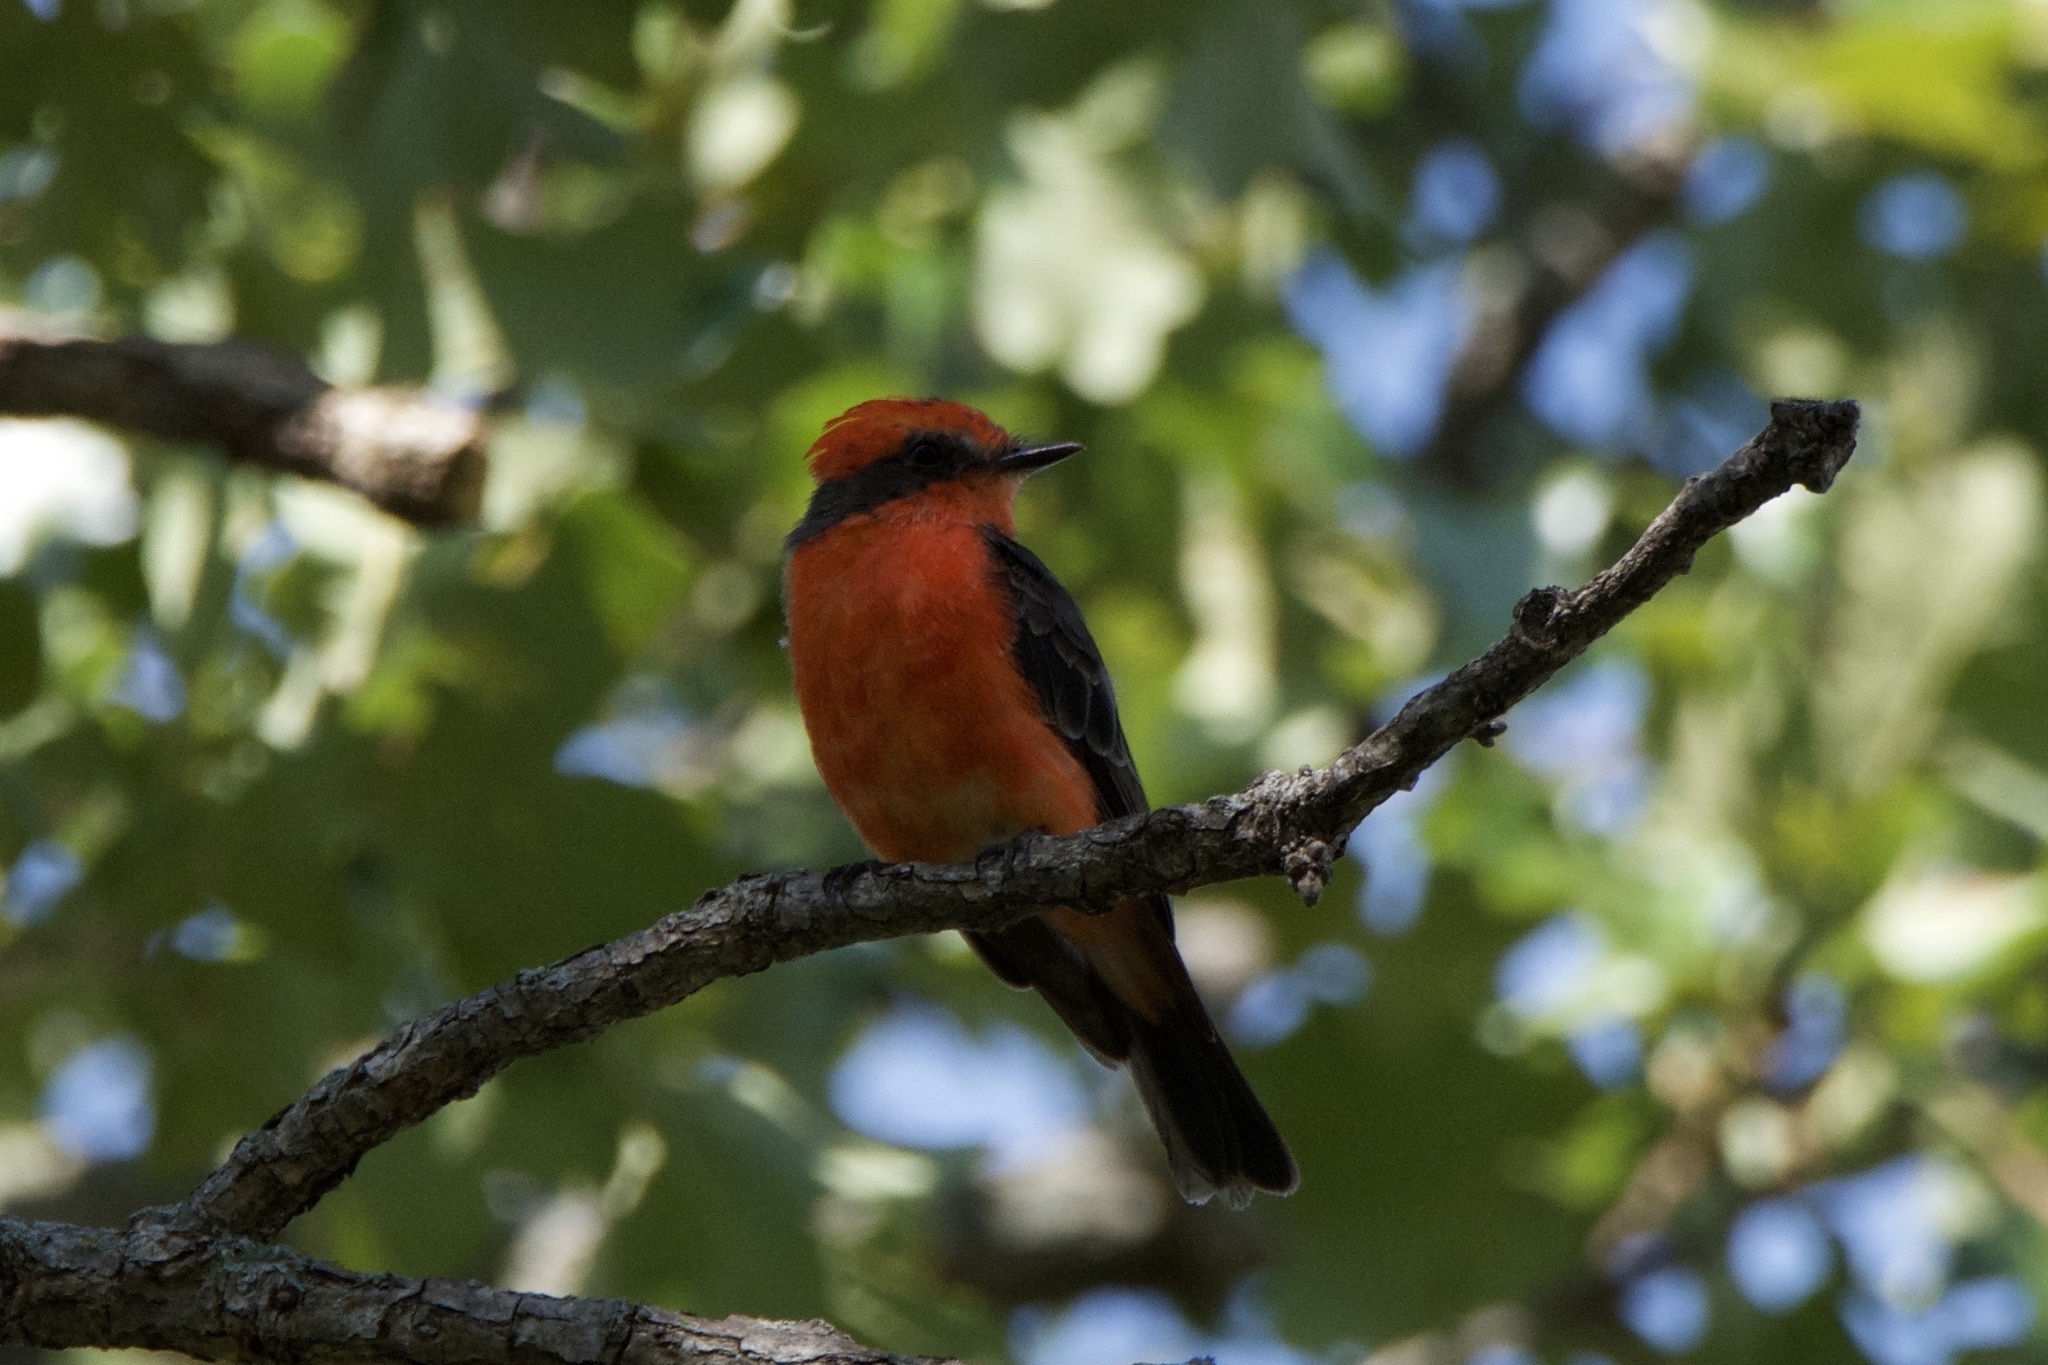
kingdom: Animalia
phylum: Chordata
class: Aves
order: Passeriformes
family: Tyrannidae
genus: Pyrocephalus
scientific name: Pyrocephalus rubinus
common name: Vermilion flycatcher
